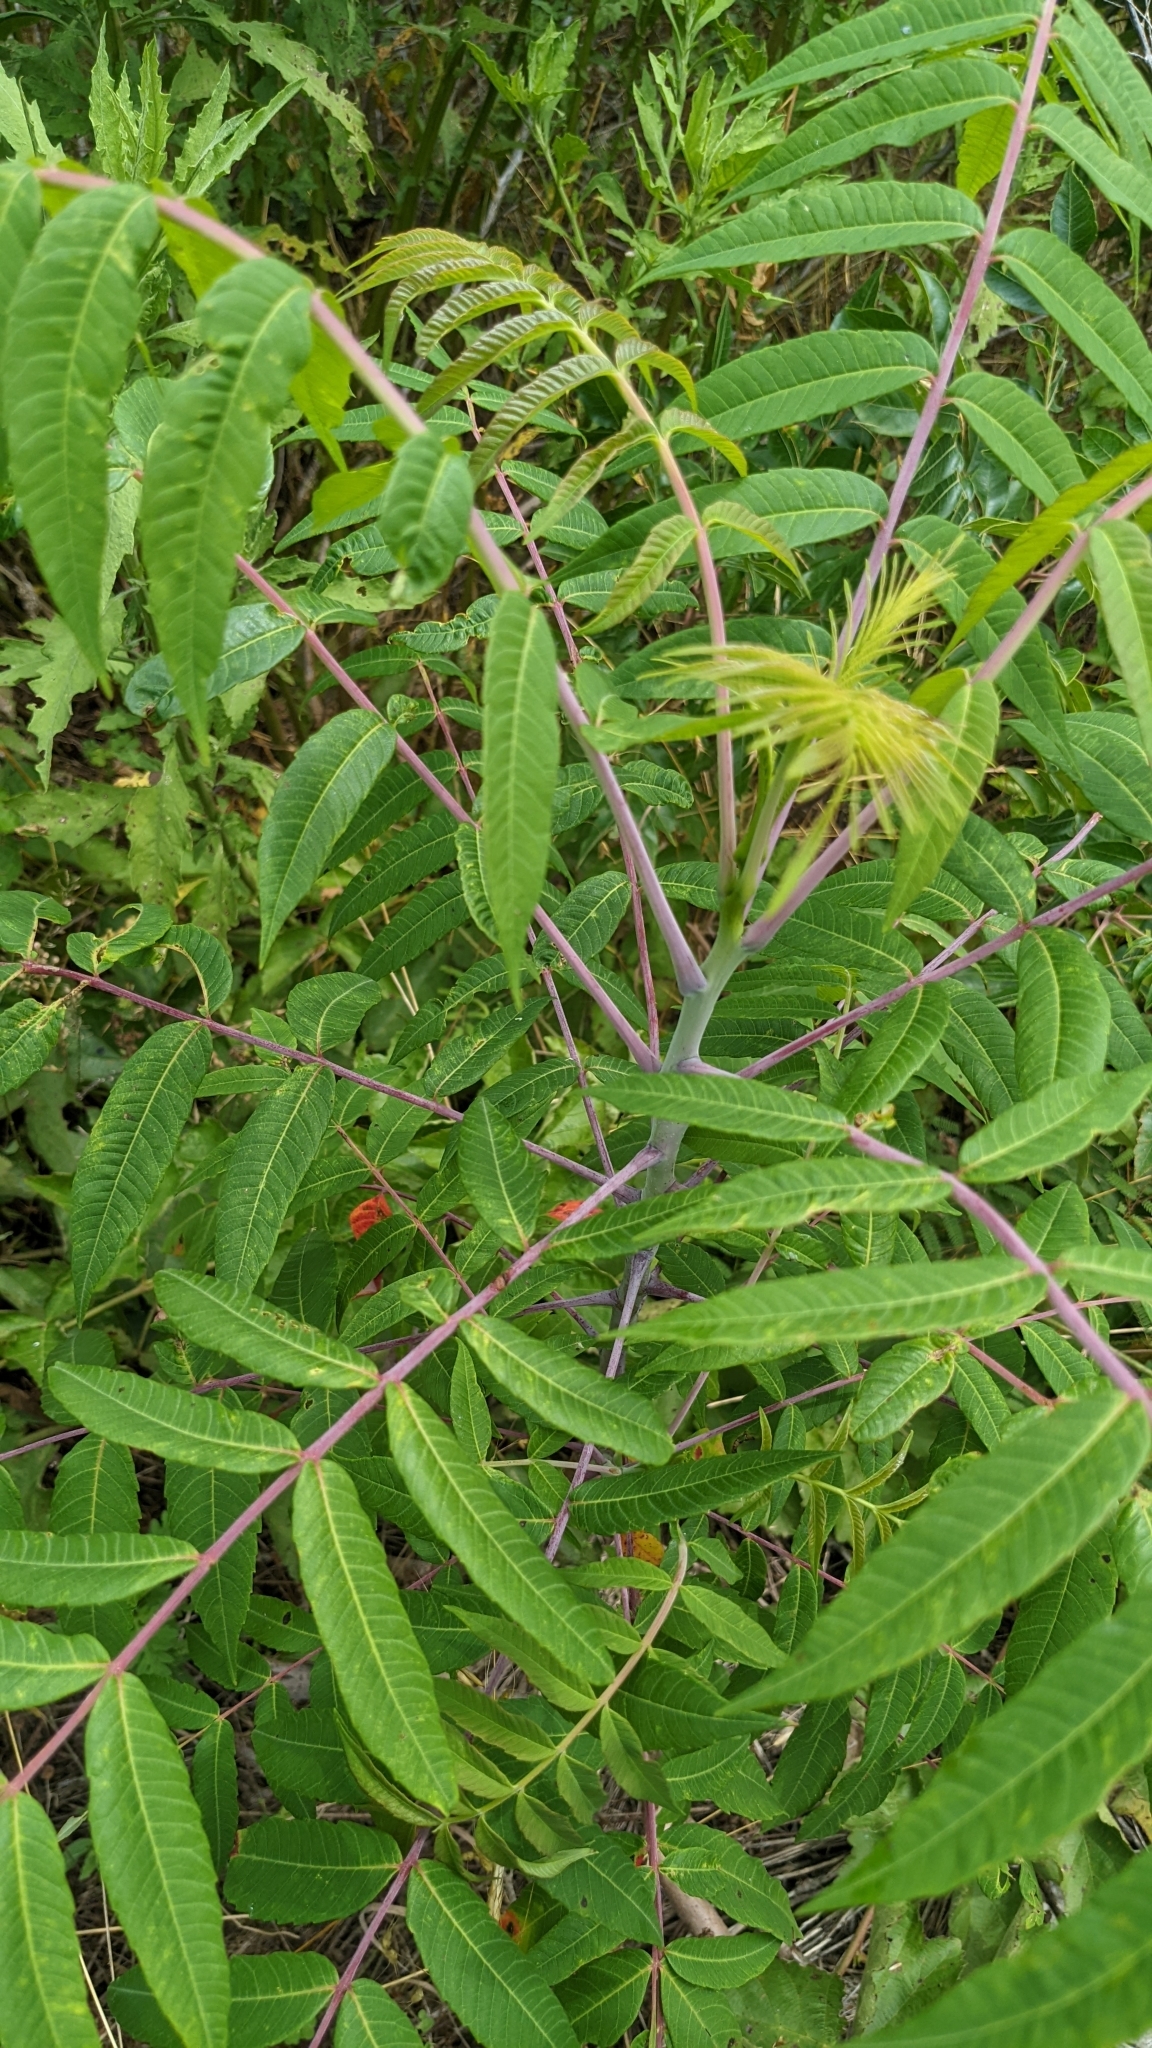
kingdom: Plantae
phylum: Tracheophyta
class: Magnoliopsida
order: Sapindales
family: Anacardiaceae
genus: Rhus
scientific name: Rhus glabra
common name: Scarlet sumac
